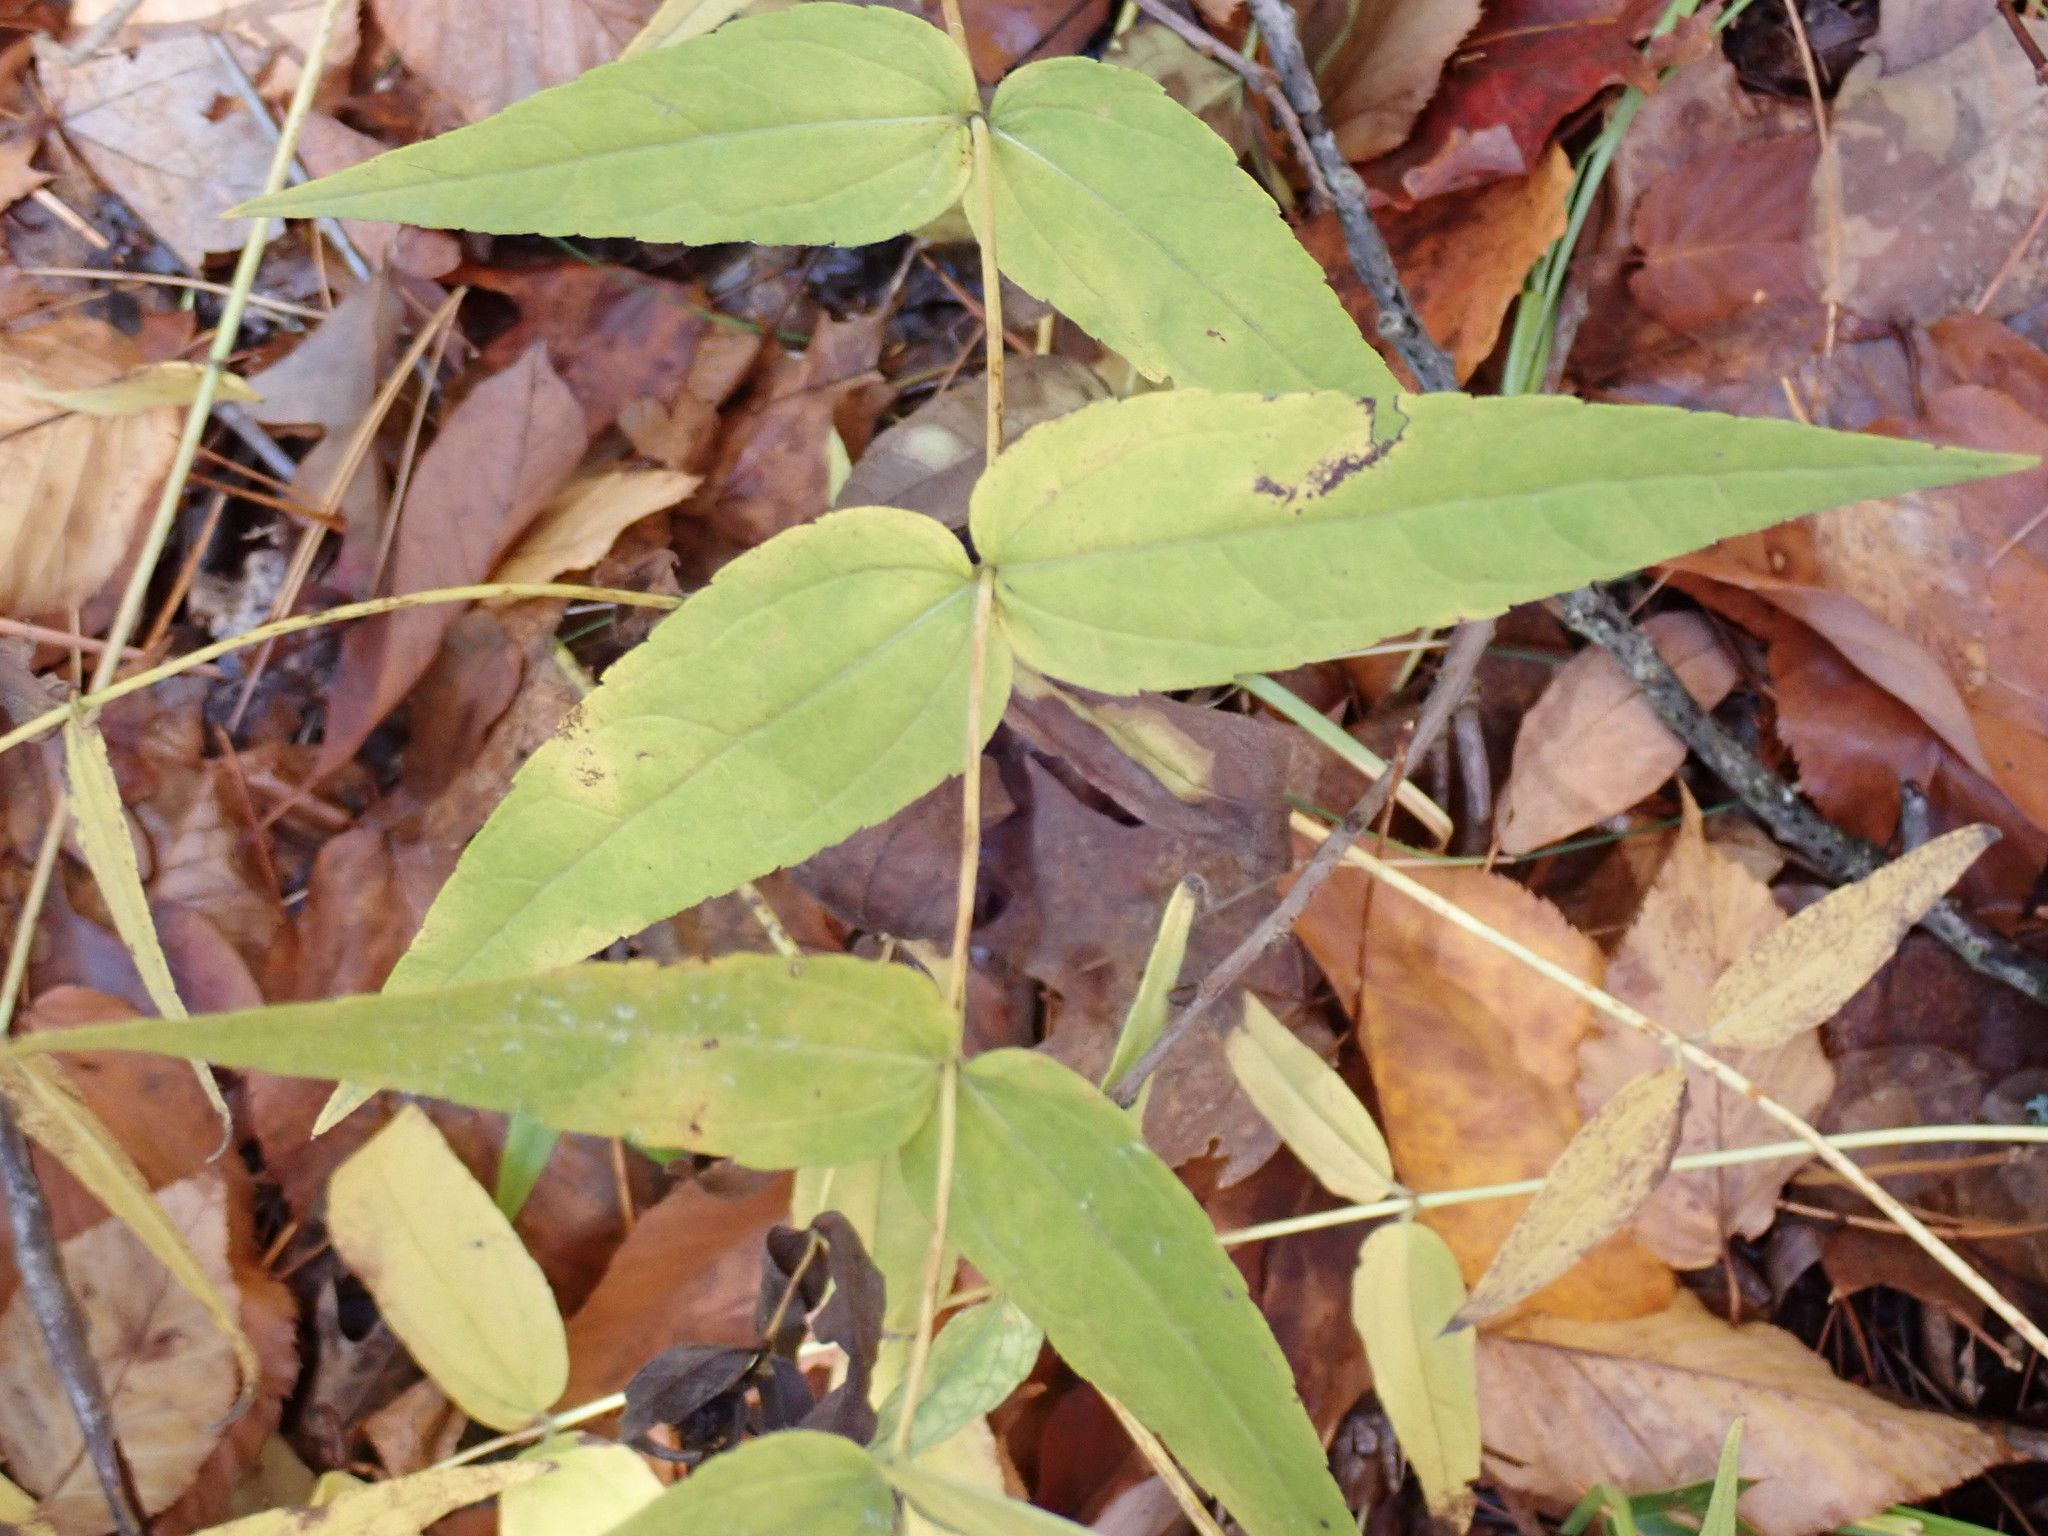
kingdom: Plantae
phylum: Tracheophyta
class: Magnoliopsida
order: Asterales
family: Asteraceae
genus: Helianthus
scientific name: Helianthus divaricatus
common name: Divergent sunflower
